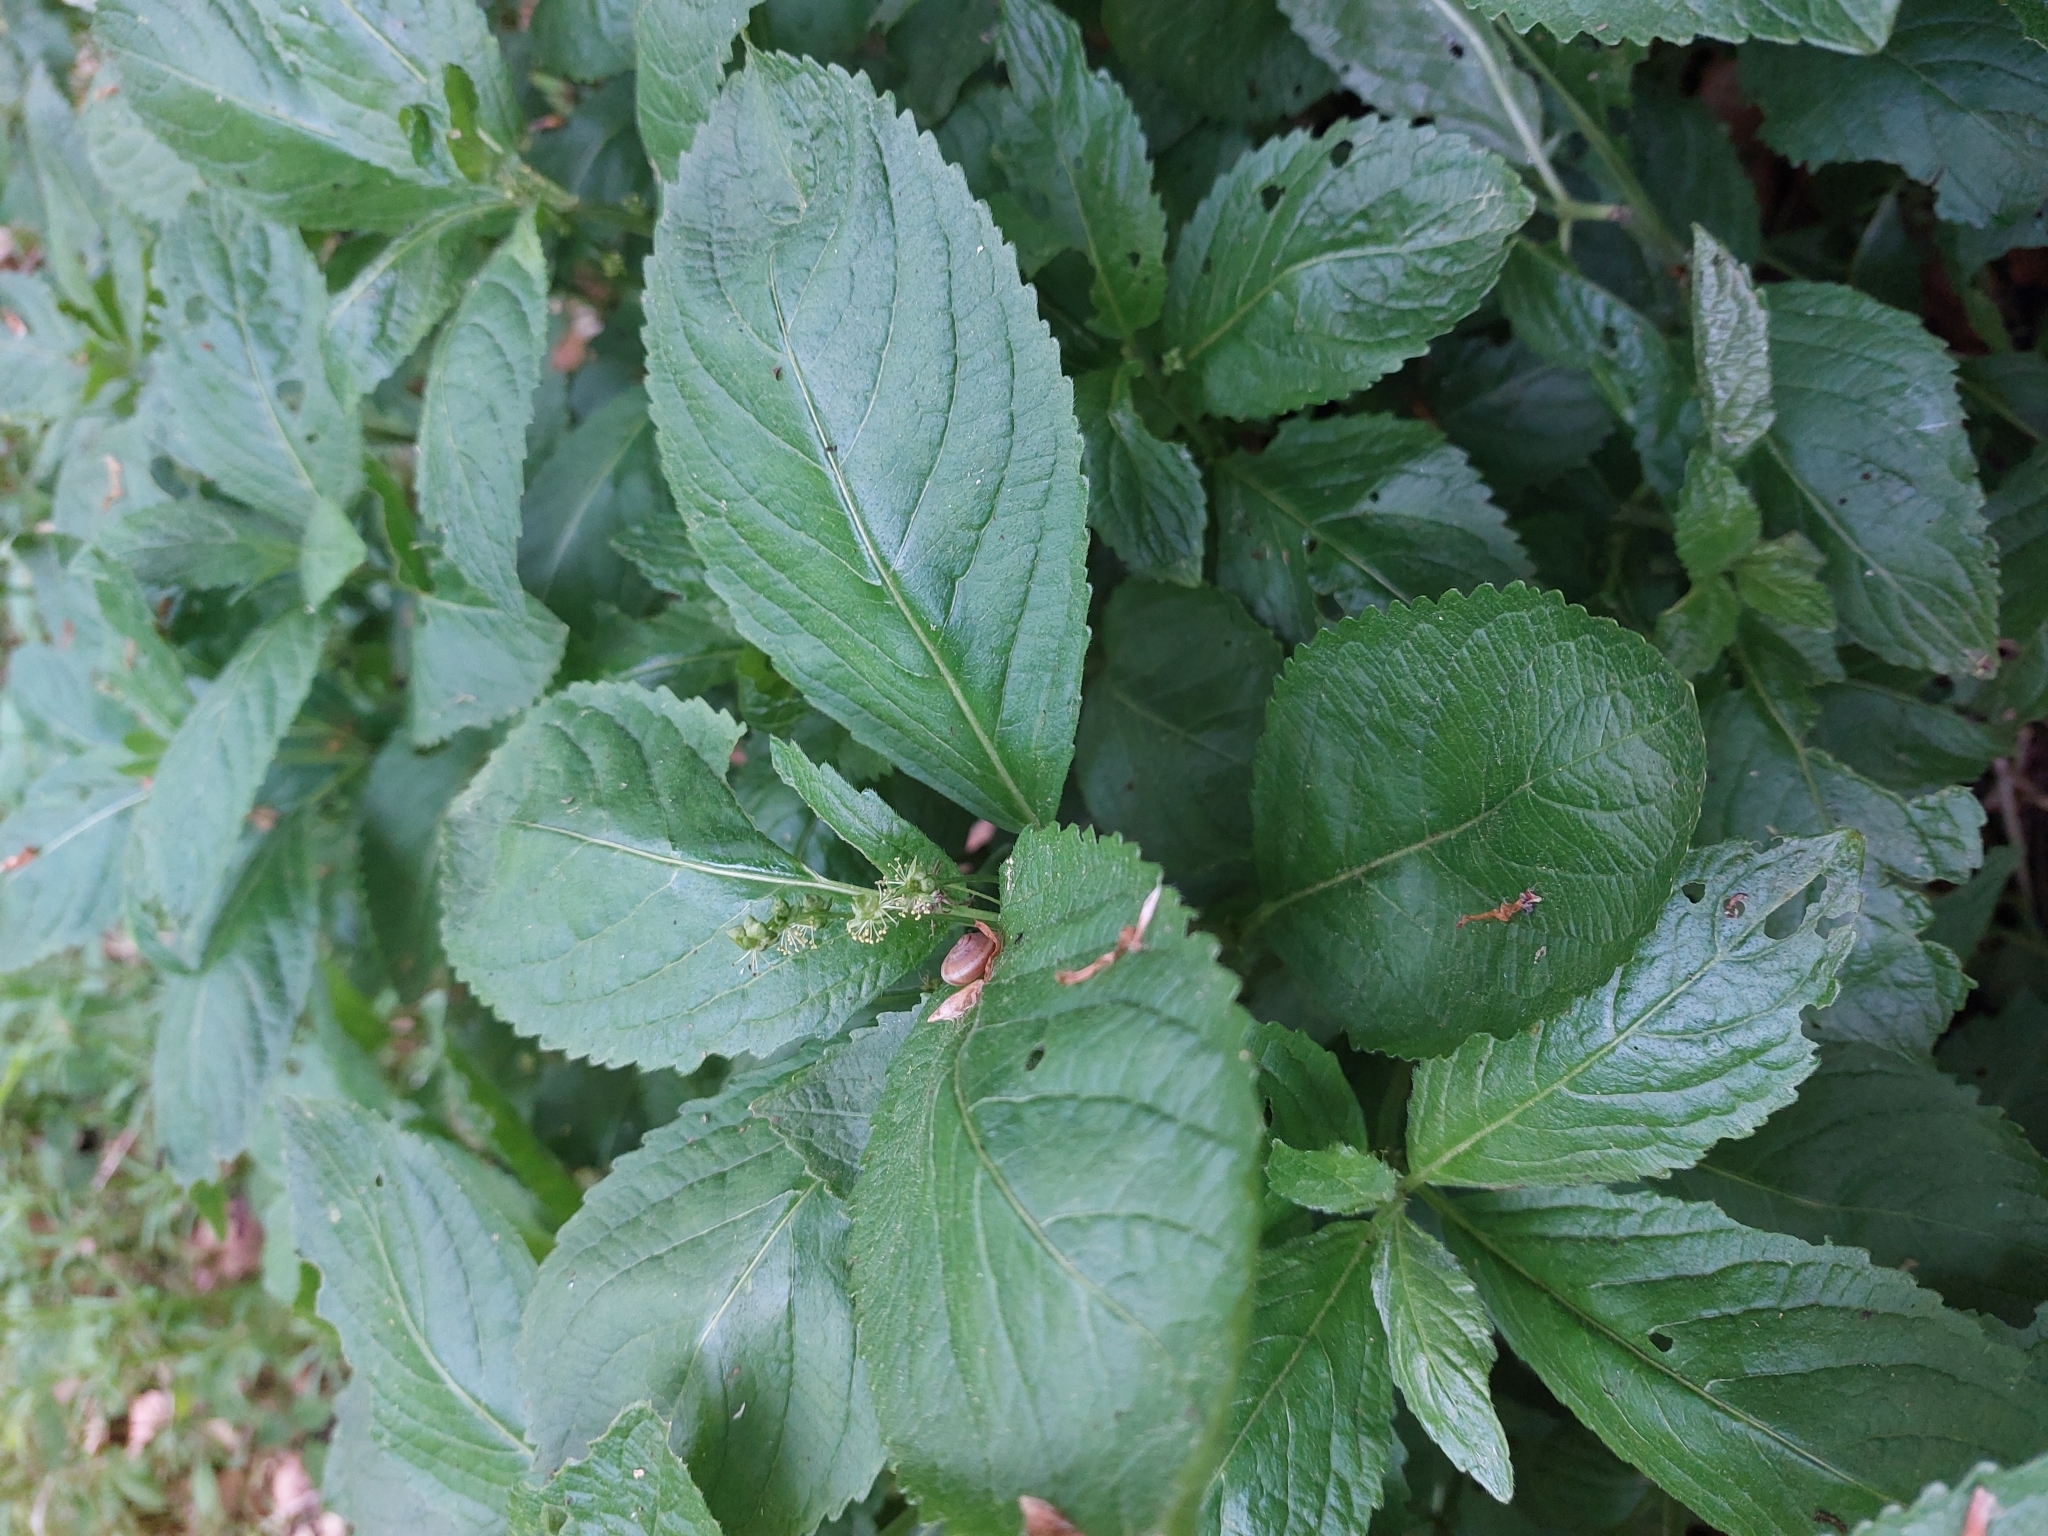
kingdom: Plantae
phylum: Tracheophyta
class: Magnoliopsida
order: Malpighiales
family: Euphorbiaceae
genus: Mercurialis
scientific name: Mercurialis perennis
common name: Dog mercury
